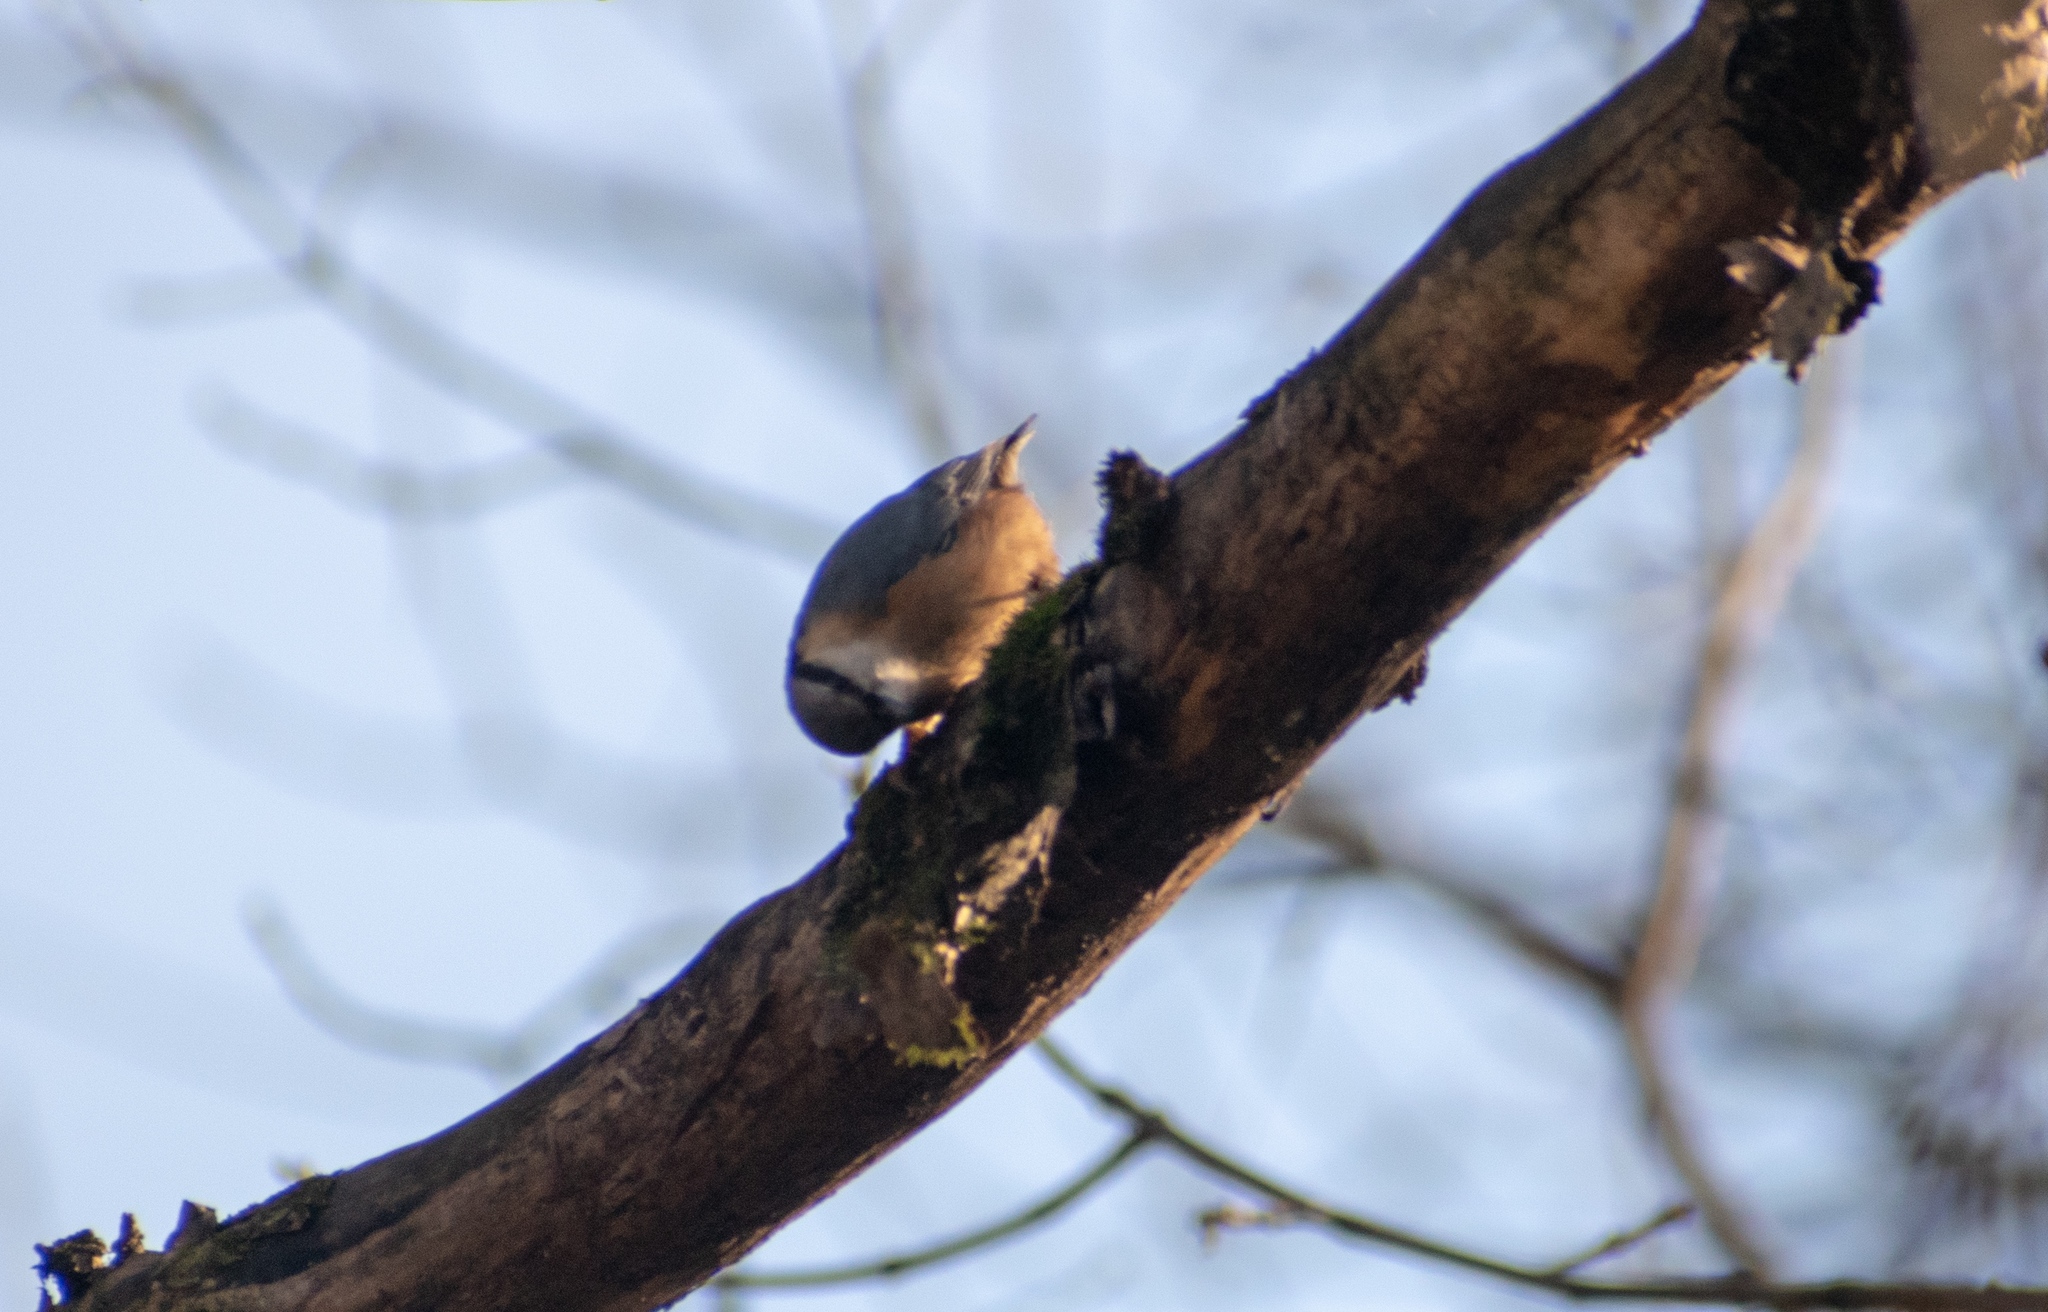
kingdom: Animalia
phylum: Chordata
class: Aves
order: Passeriformes
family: Sittidae
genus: Sitta
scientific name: Sitta europaea
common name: Eurasian nuthatch
